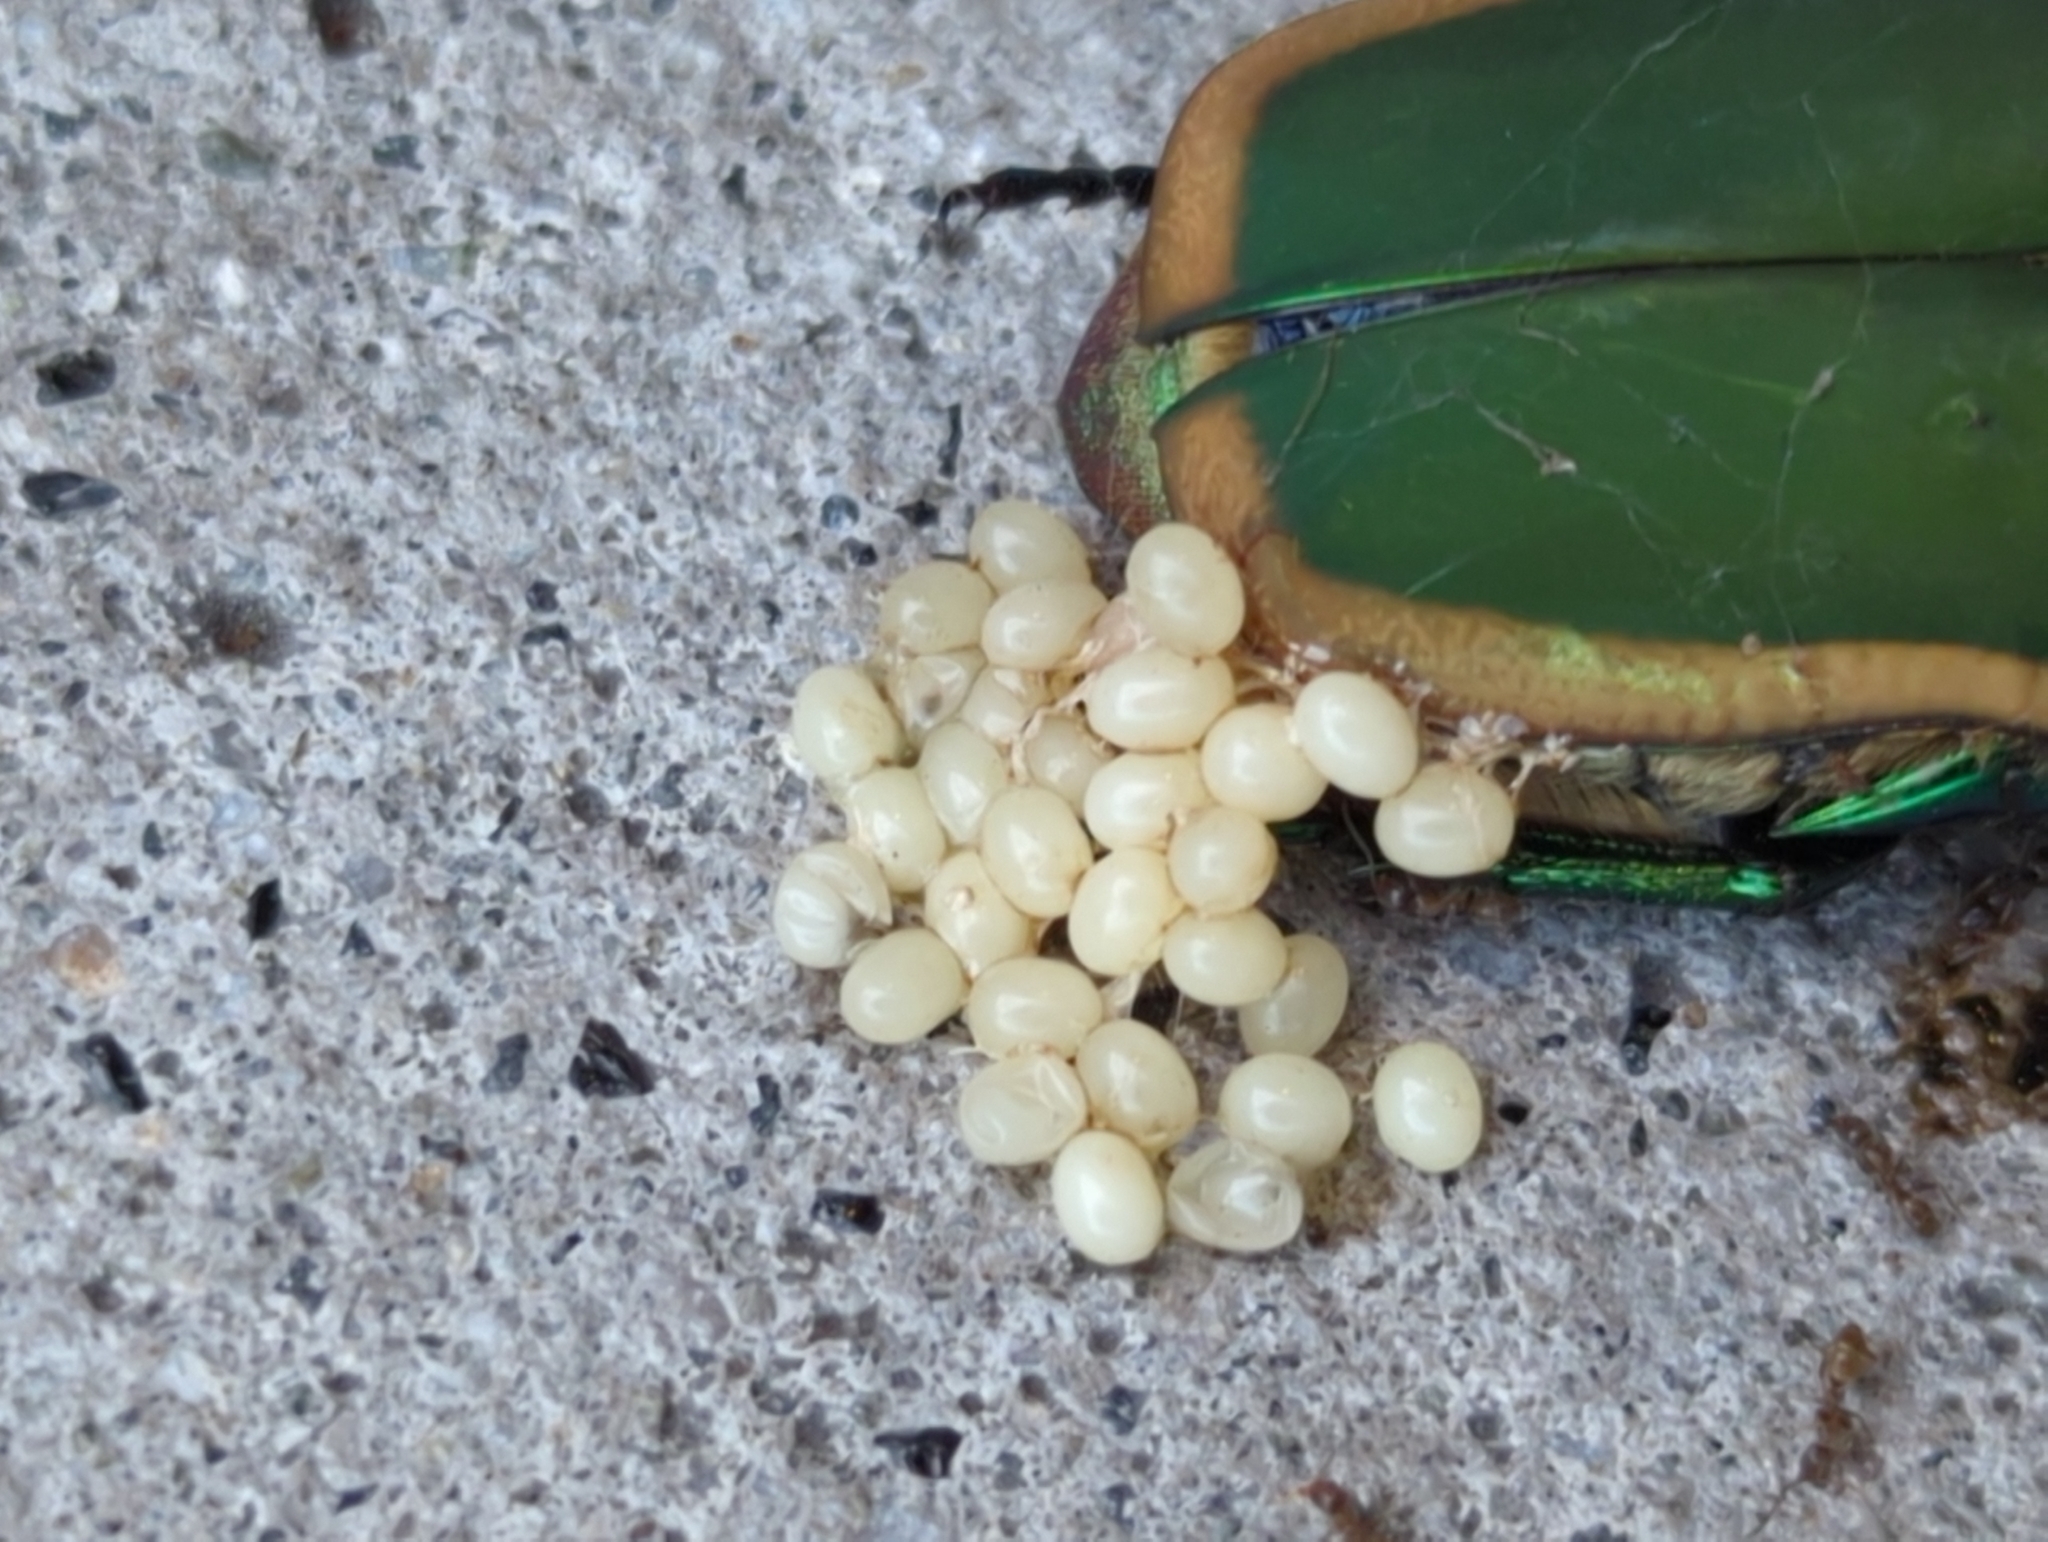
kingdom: Animalia
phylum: Arthropoda
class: Insecta
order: Coleoptera
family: Scarabaeidae
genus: Cotinis
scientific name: Cotinis mutabilis
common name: Figeater beetle
